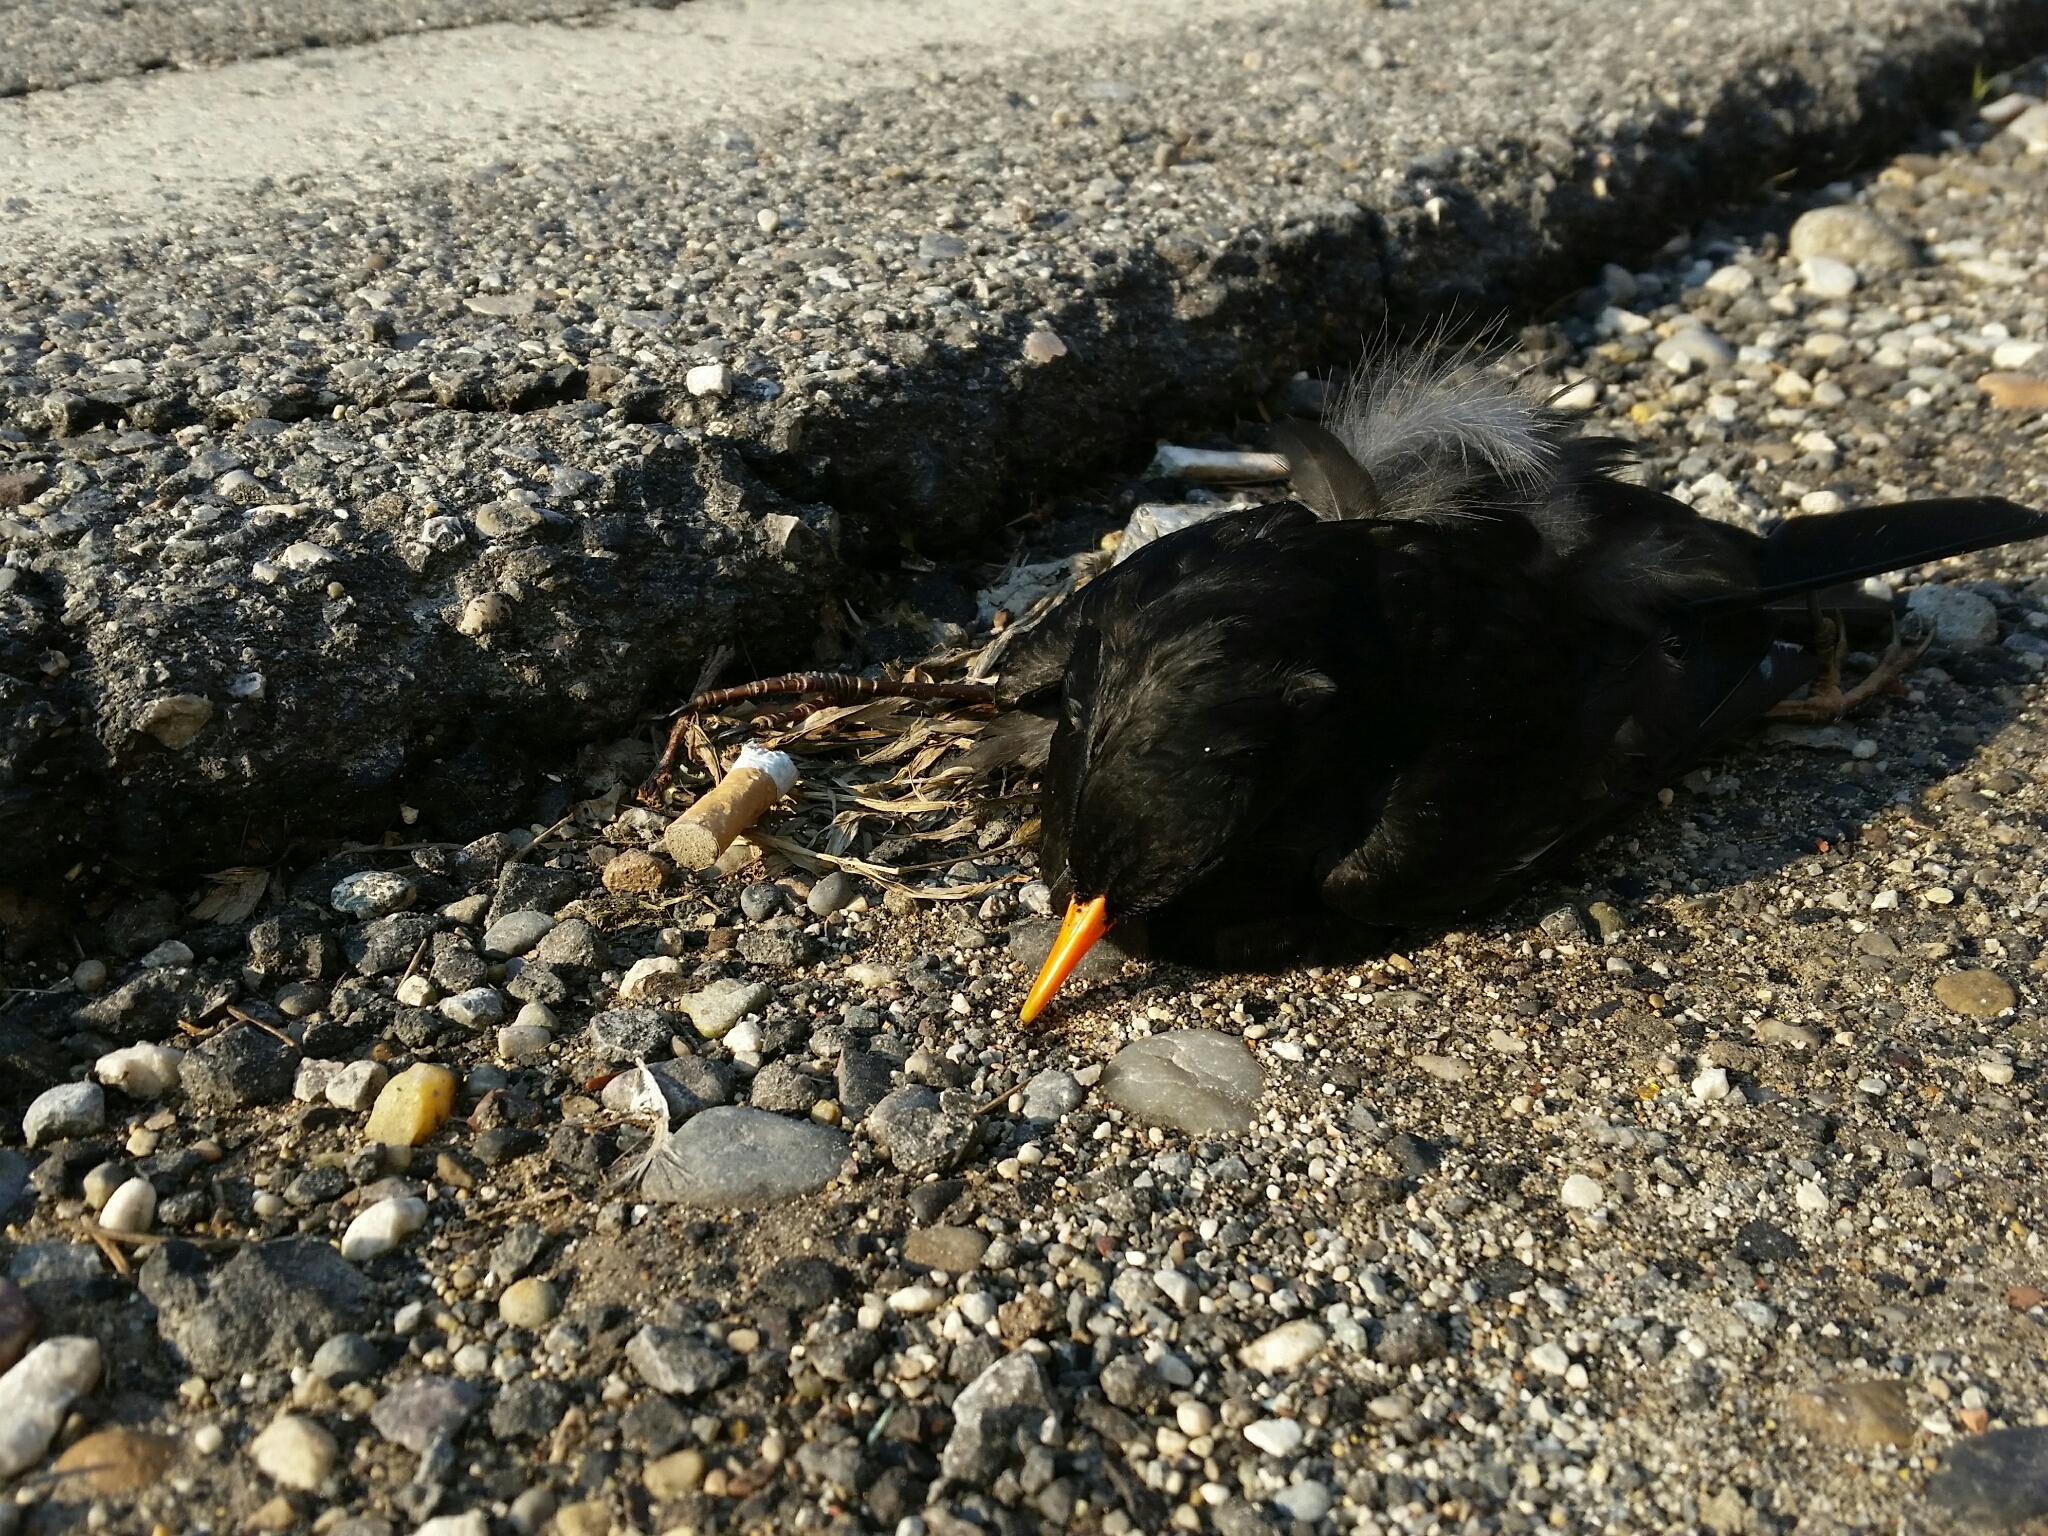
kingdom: Animalia
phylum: Chordata
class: Aves
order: Passeriformes
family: Turdidae
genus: Turdus
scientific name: Turdus merula
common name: Common blackbird
